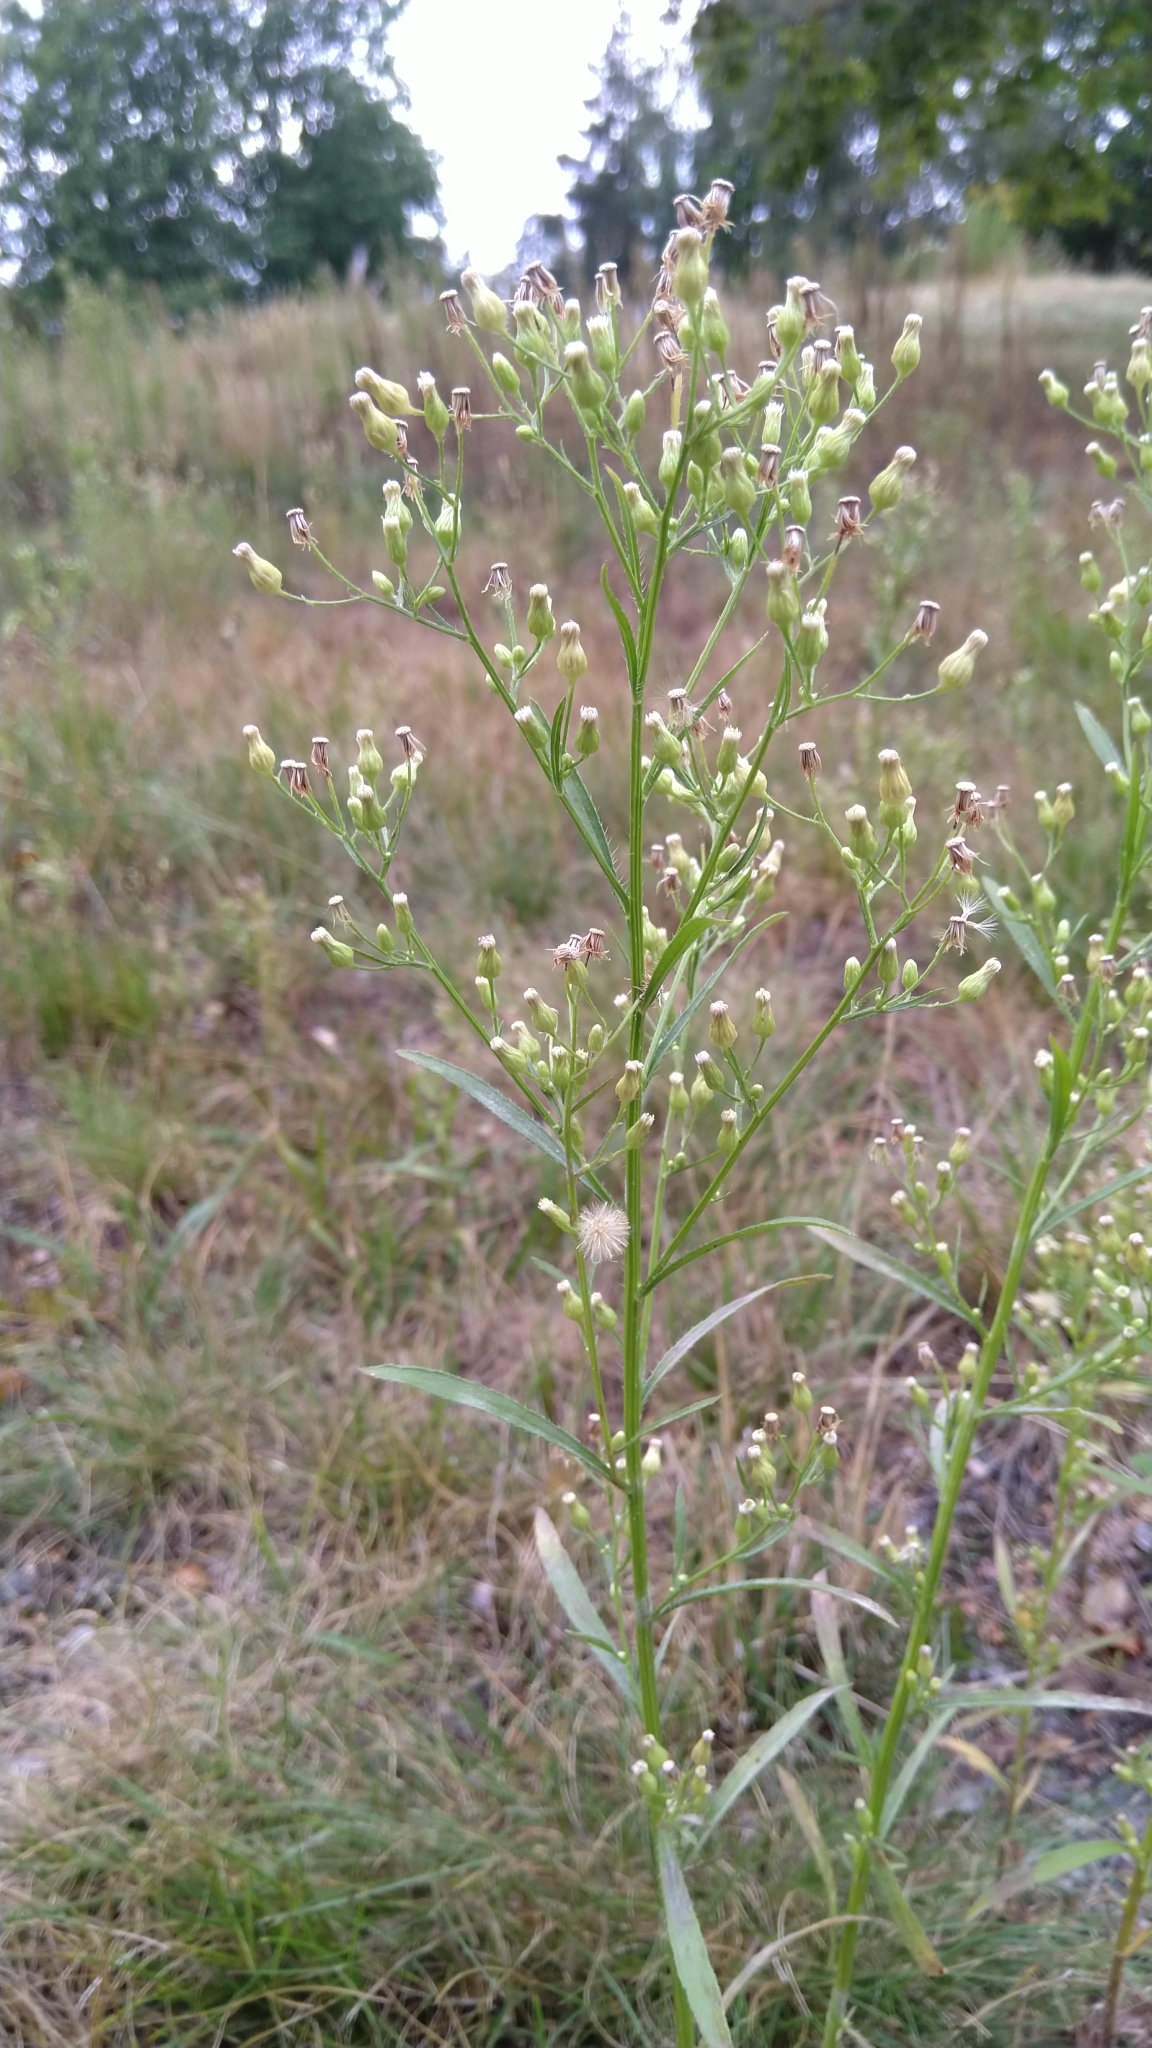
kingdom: Plantae
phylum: Tracheophyta
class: Magnoliopsida
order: Asterales
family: Asteraceae
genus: Erigeron
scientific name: Erigeron canadensis
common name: Canadian fleabane
